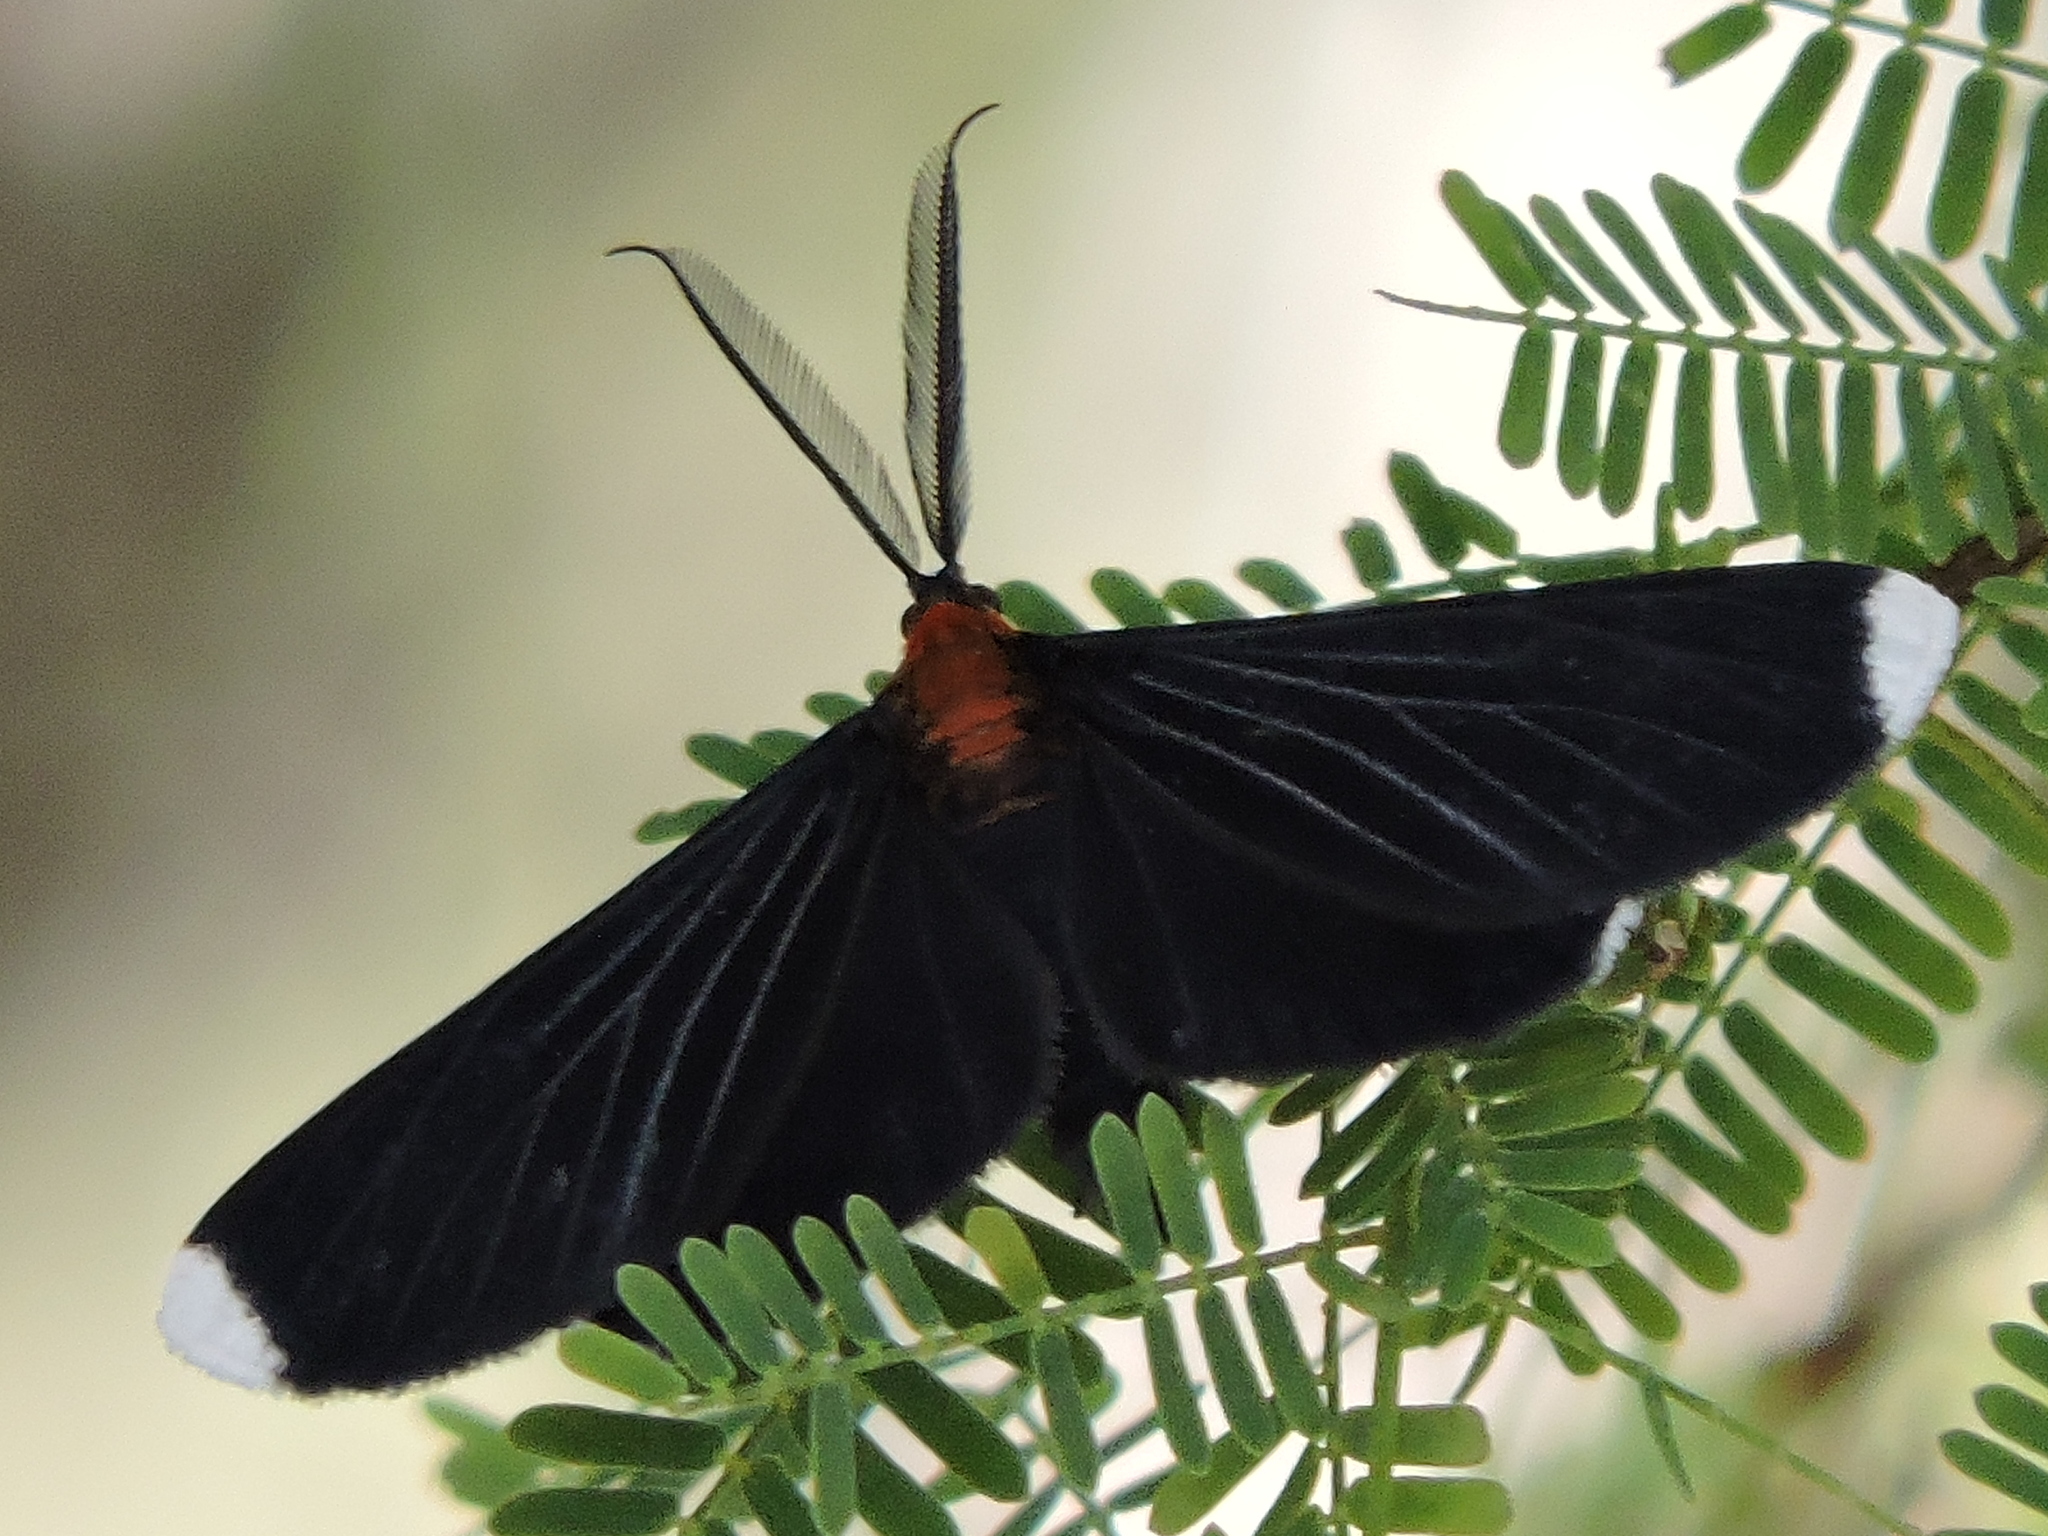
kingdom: Animalia
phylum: Arthropoda
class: Insecta
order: Lepidoptera
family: Geometridae
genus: Melanchroia
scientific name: Melanchroia chephise
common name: White-tipped black
